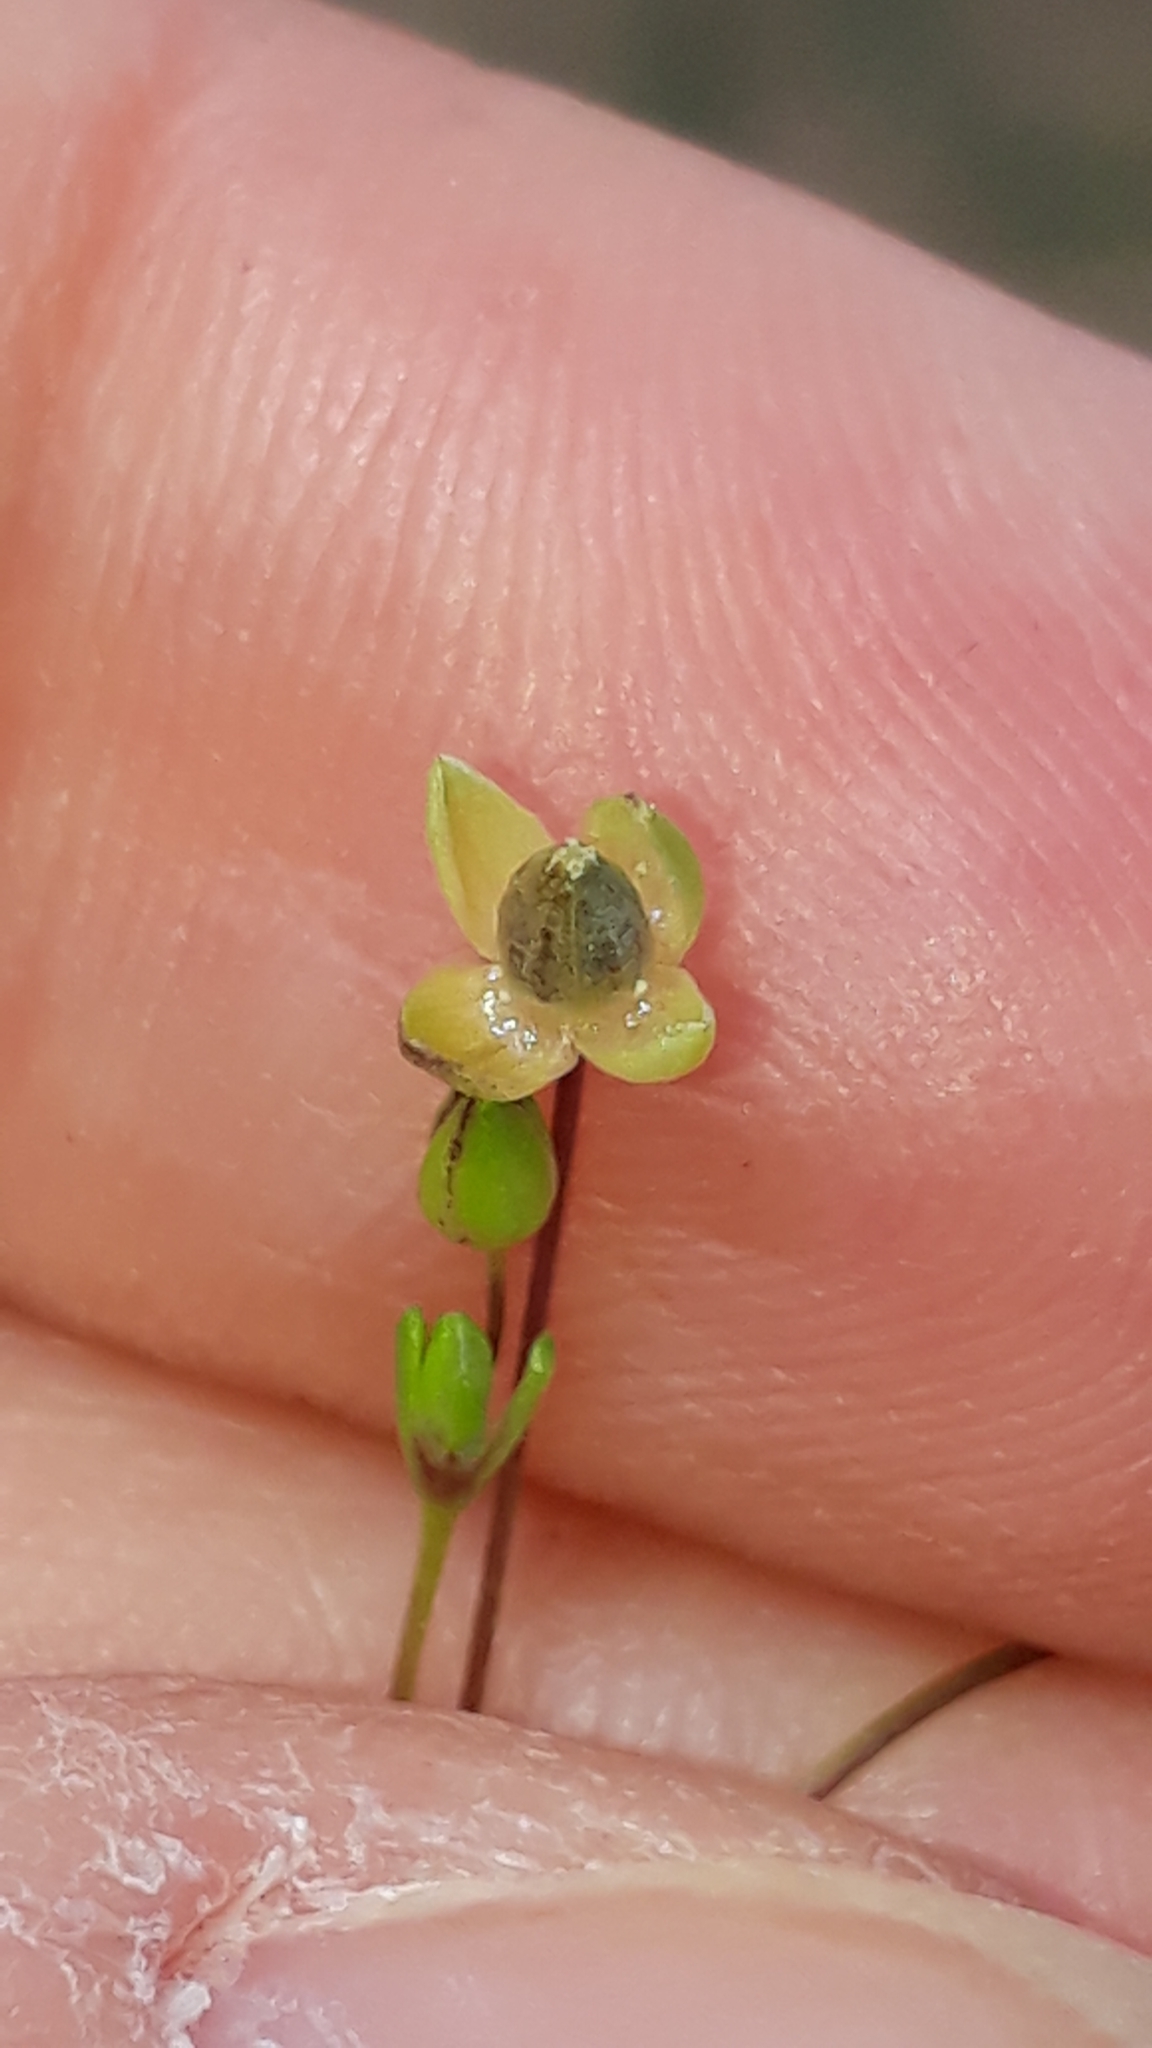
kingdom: Plantae
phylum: Tracheophyta
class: Magnoliopsida
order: Caryophyllales
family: Caryophyllaceae
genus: Sagina
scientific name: Sagina maritima
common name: Sea pearlwort
